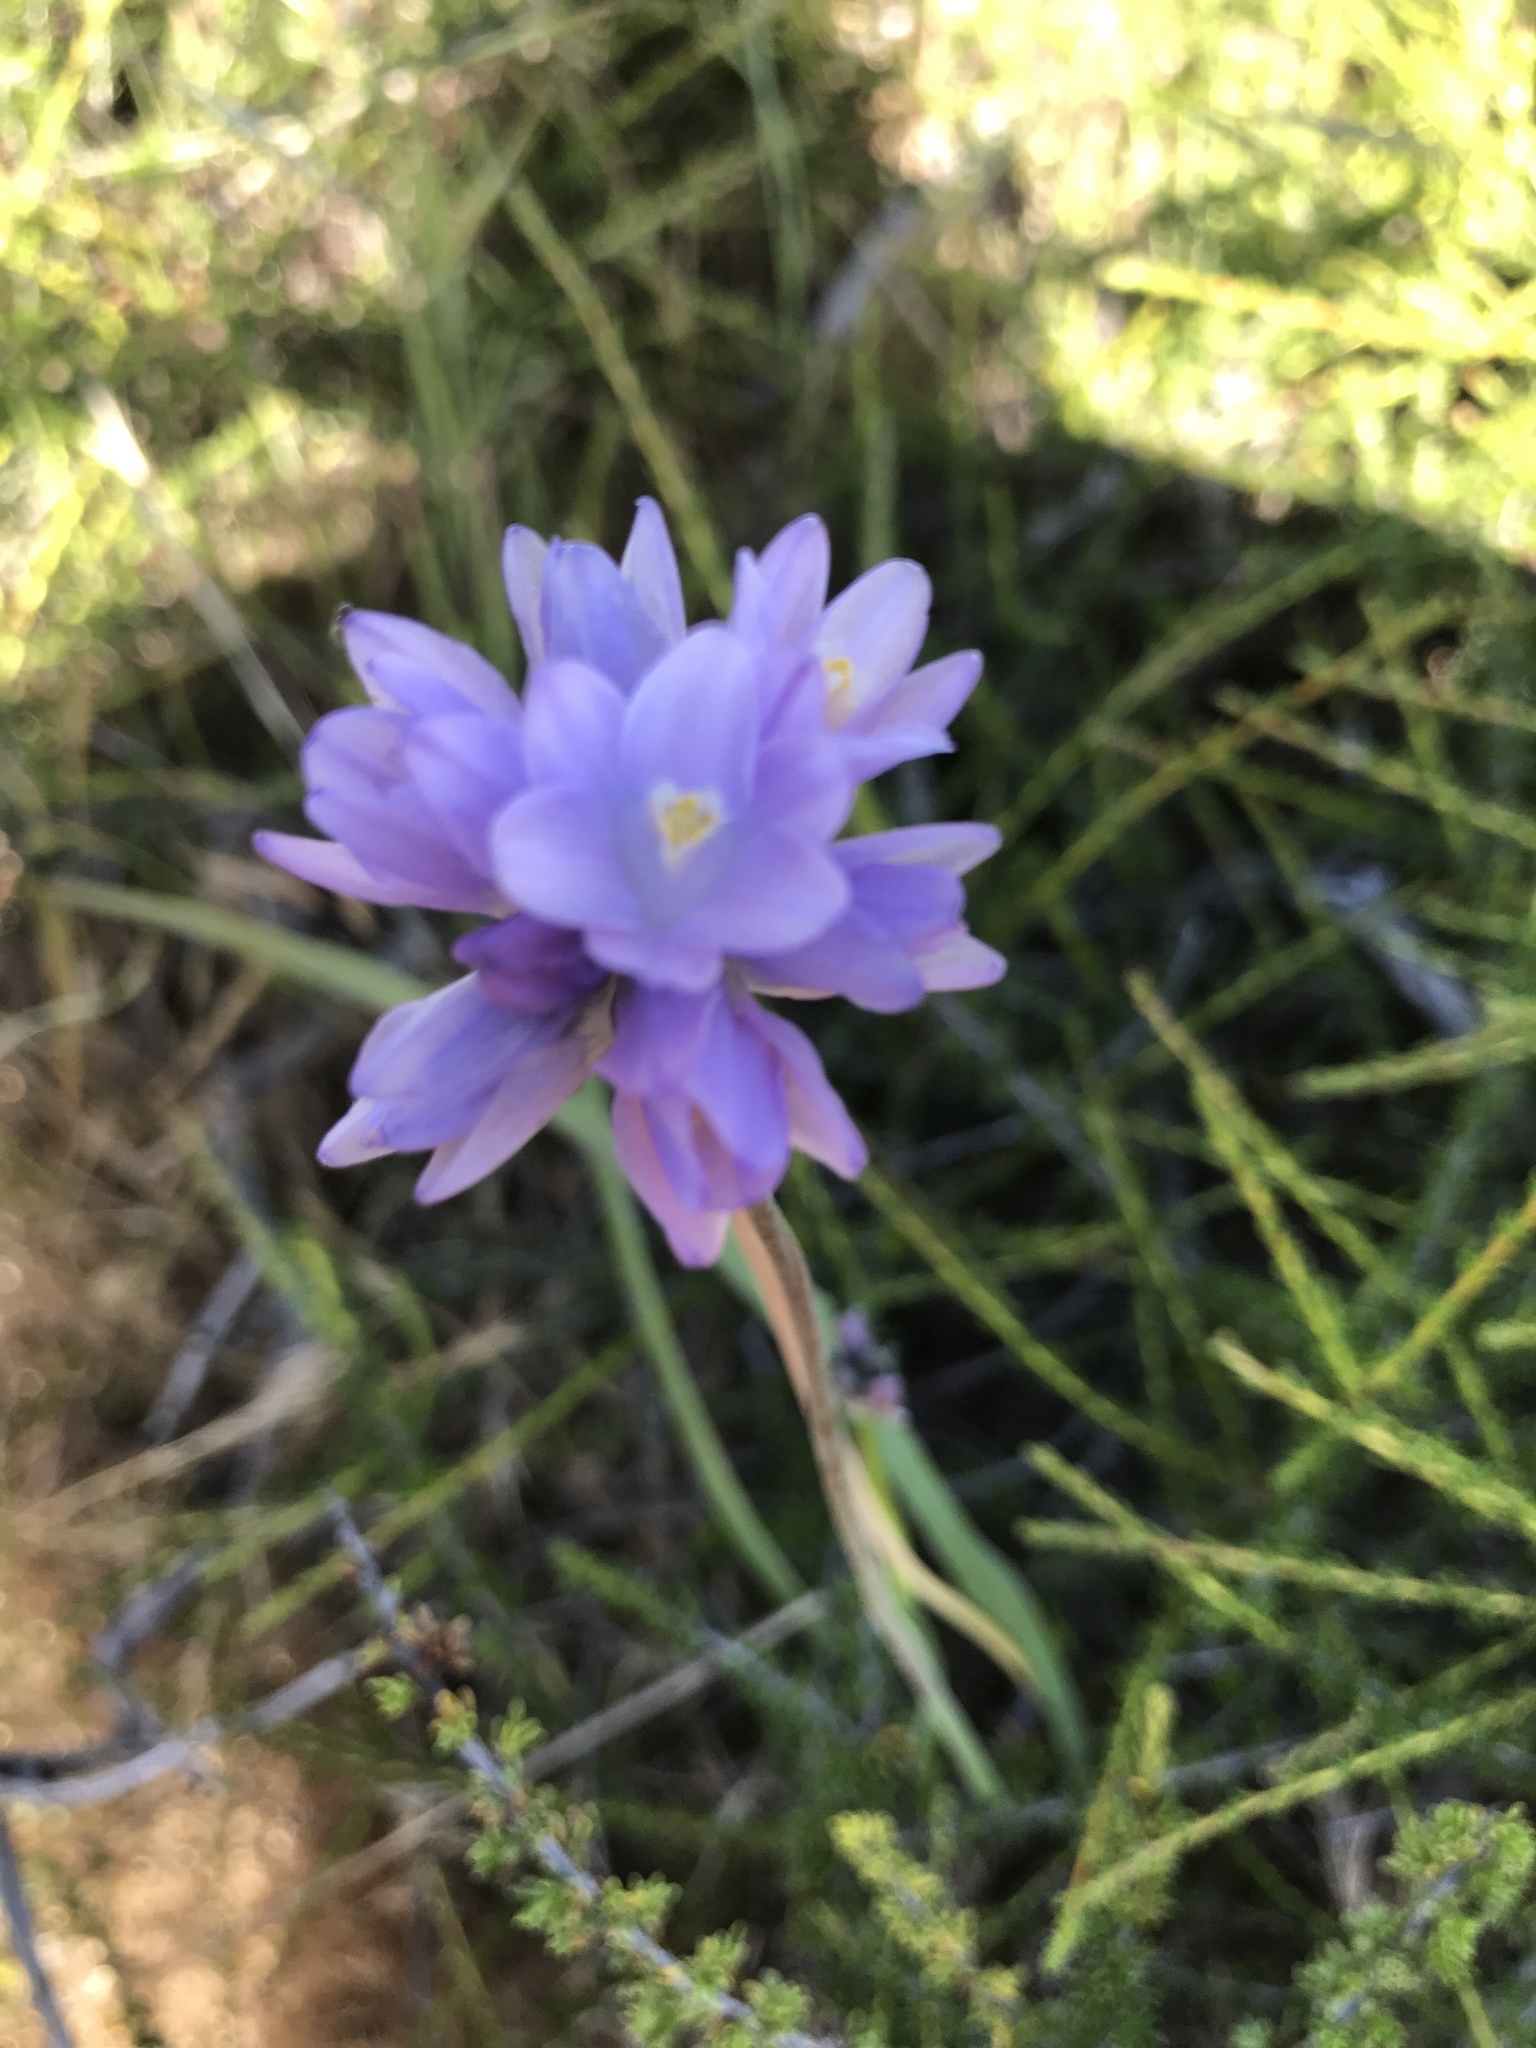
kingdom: Plantae
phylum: Tracheophyta
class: Liliopsida
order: Asparagales
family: Asparagaceae
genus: Dipterostemon
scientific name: Dipterostemon capitatus
